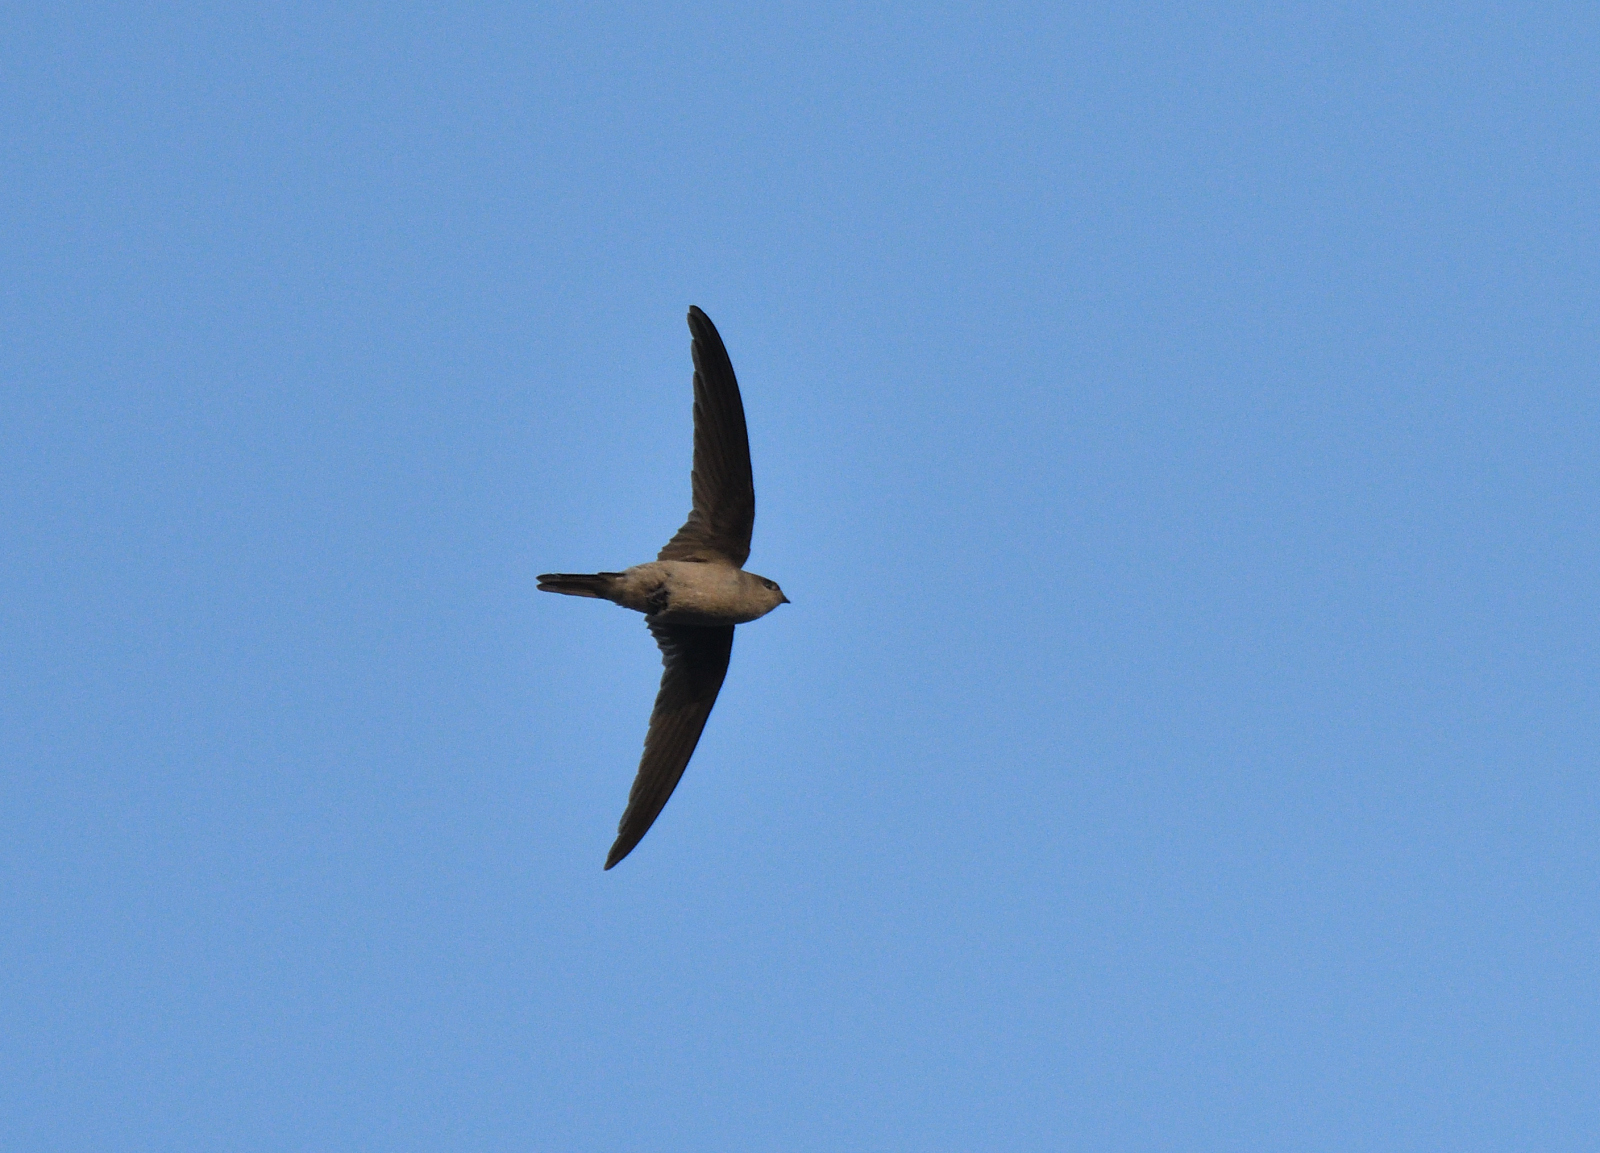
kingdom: Animalia
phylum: Chordata
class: Aves
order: Apodiformes
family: Apodidae
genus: Cypsiurus
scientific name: Cypsiurus balasiensis
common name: Asian palm swift
